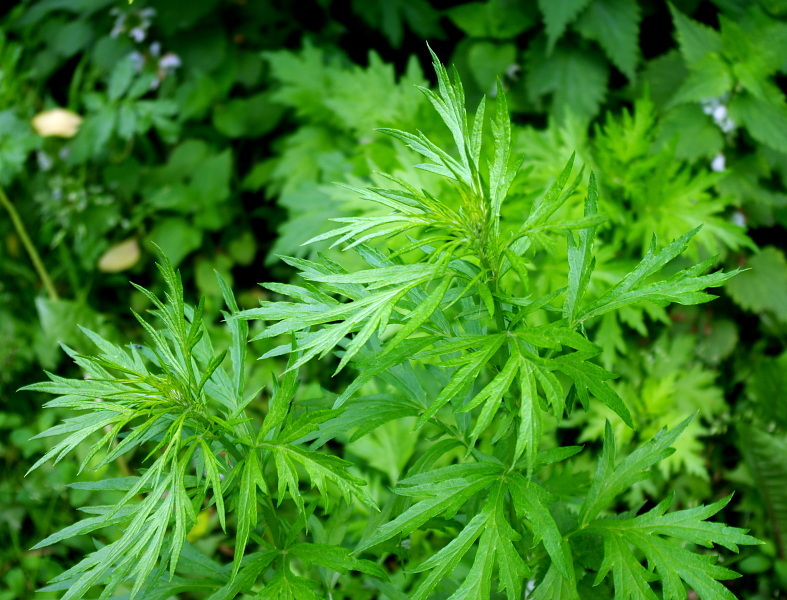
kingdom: Plantae
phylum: Tracheophyta
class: Magnoliopsida
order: Asterales
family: Asteraceae
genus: Artemisia
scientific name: Artemisia vulgaris
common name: Mugwort
